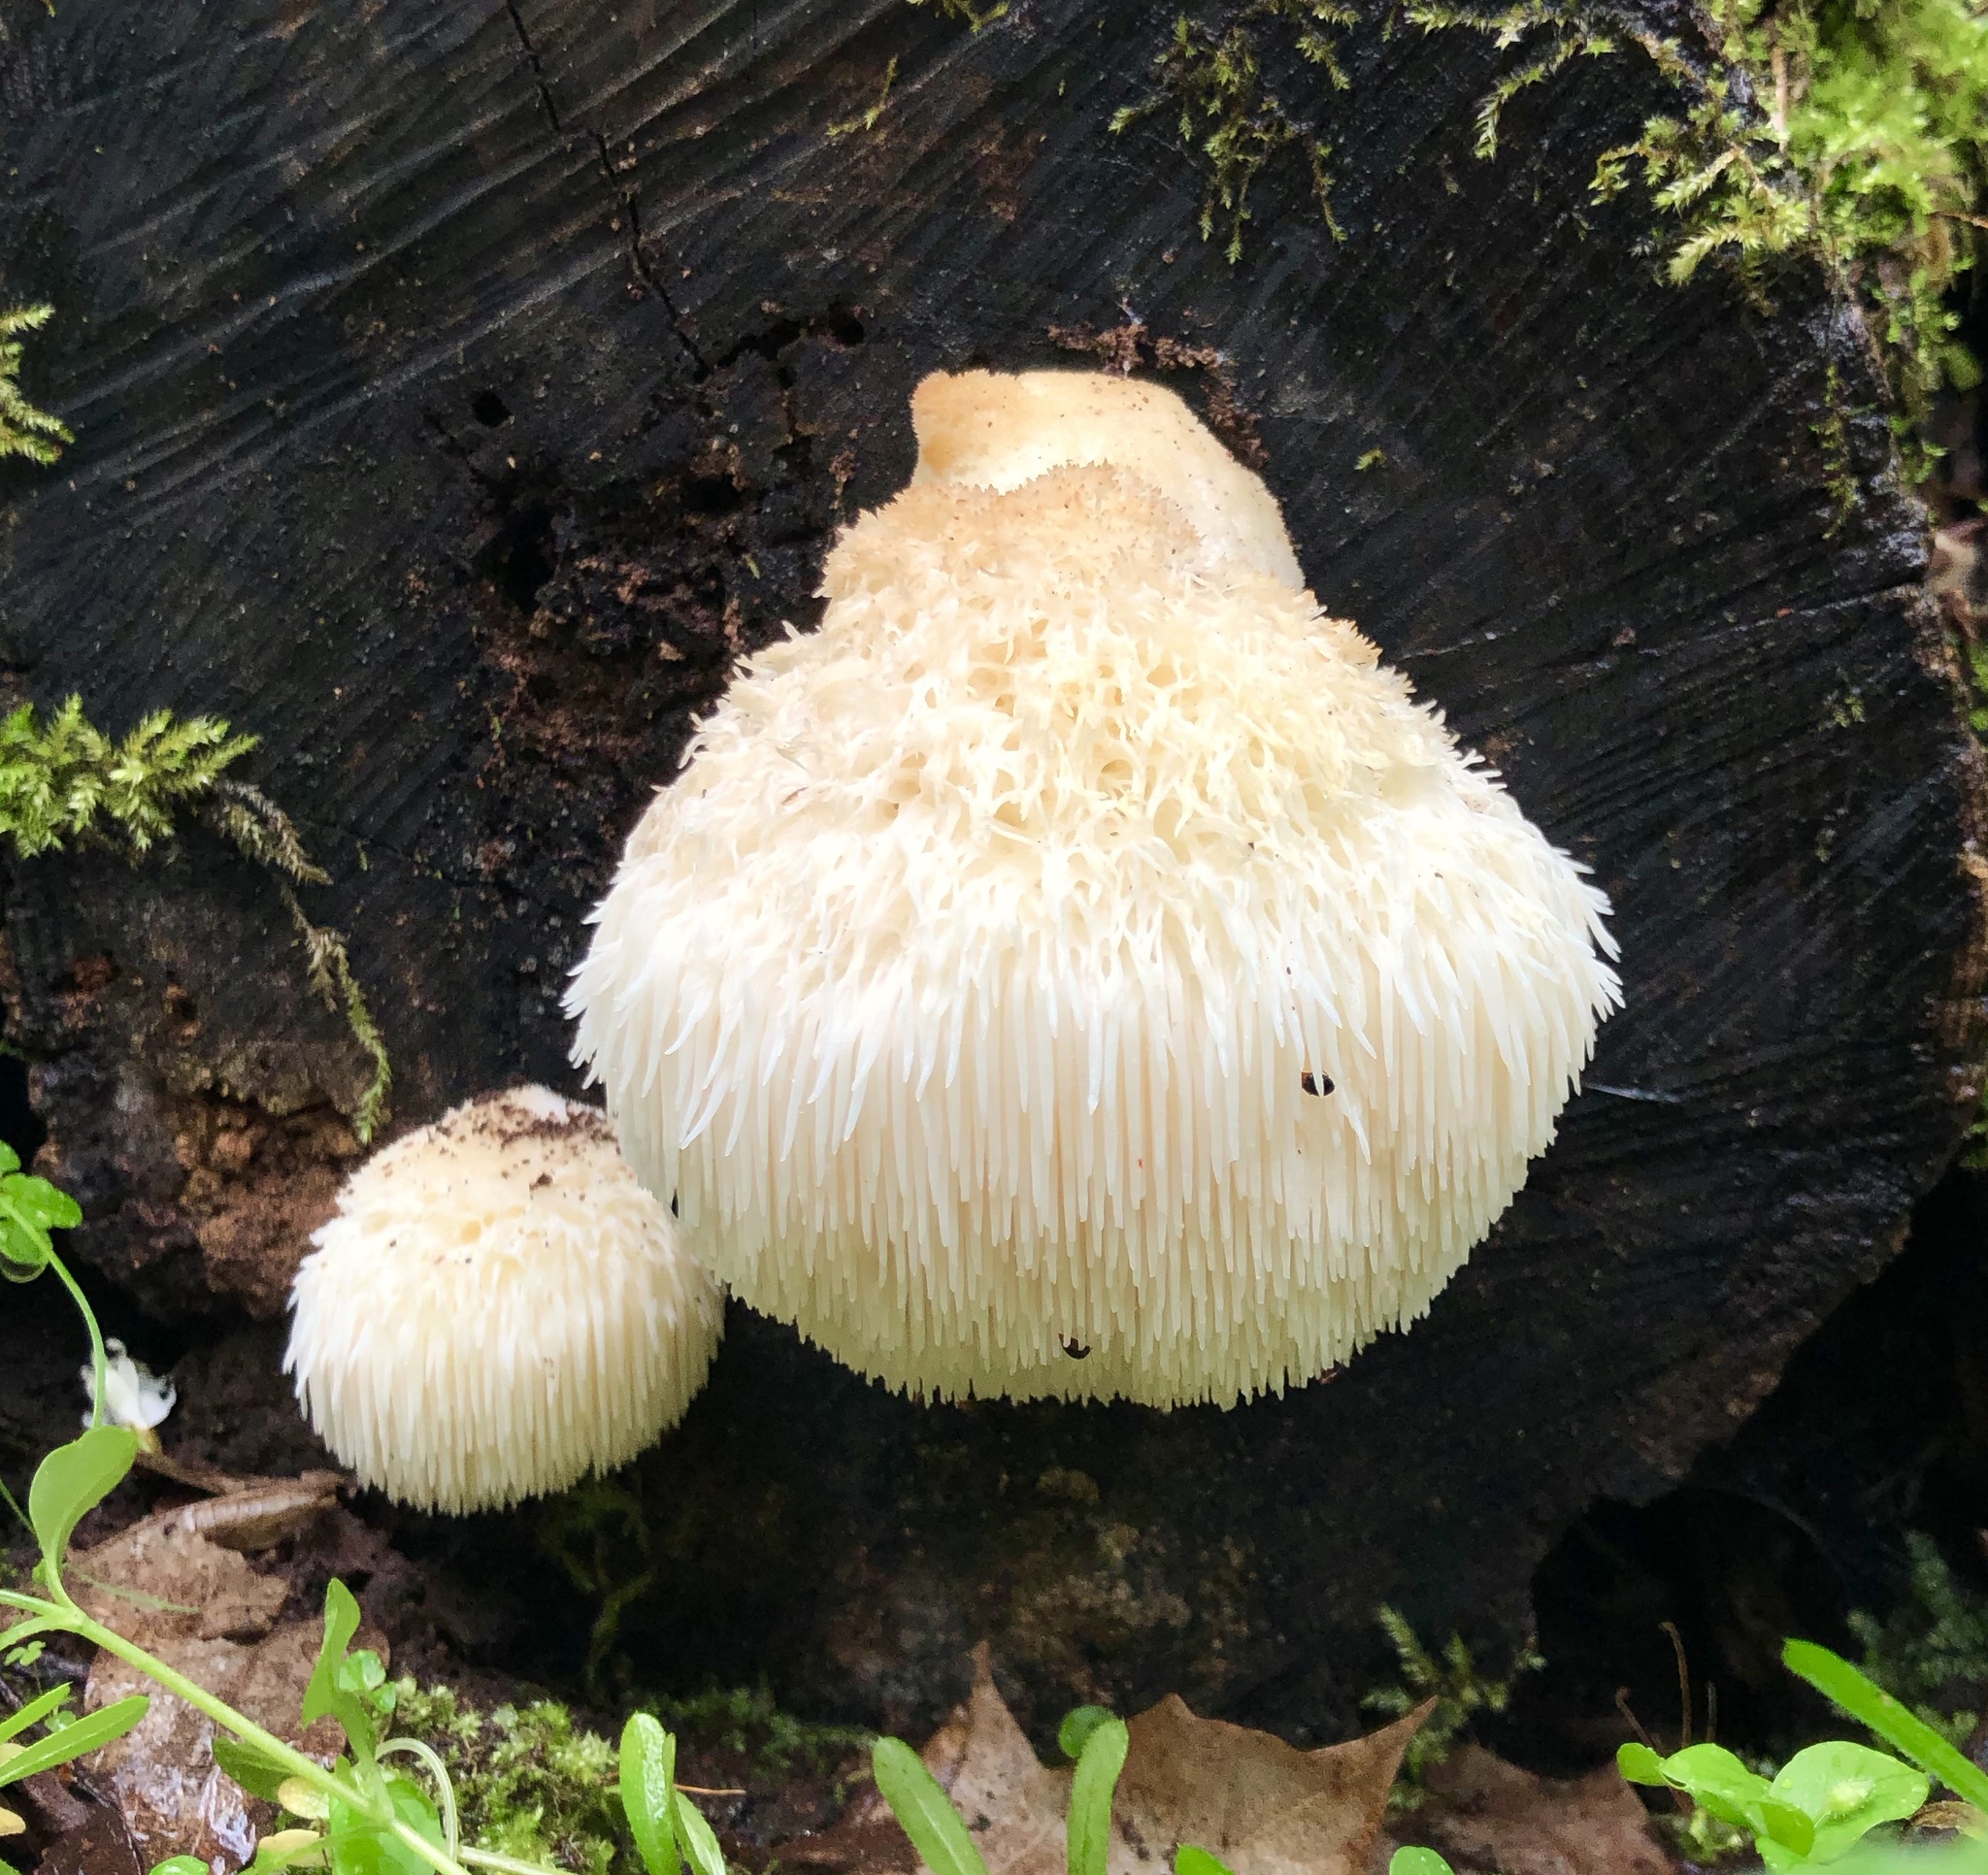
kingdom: Fungi
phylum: Basidiomycota
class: Agaricomycetes
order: Russulales
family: Hericiaceae
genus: Hericium
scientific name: Hericium erinaceus
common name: Bearded tooth
